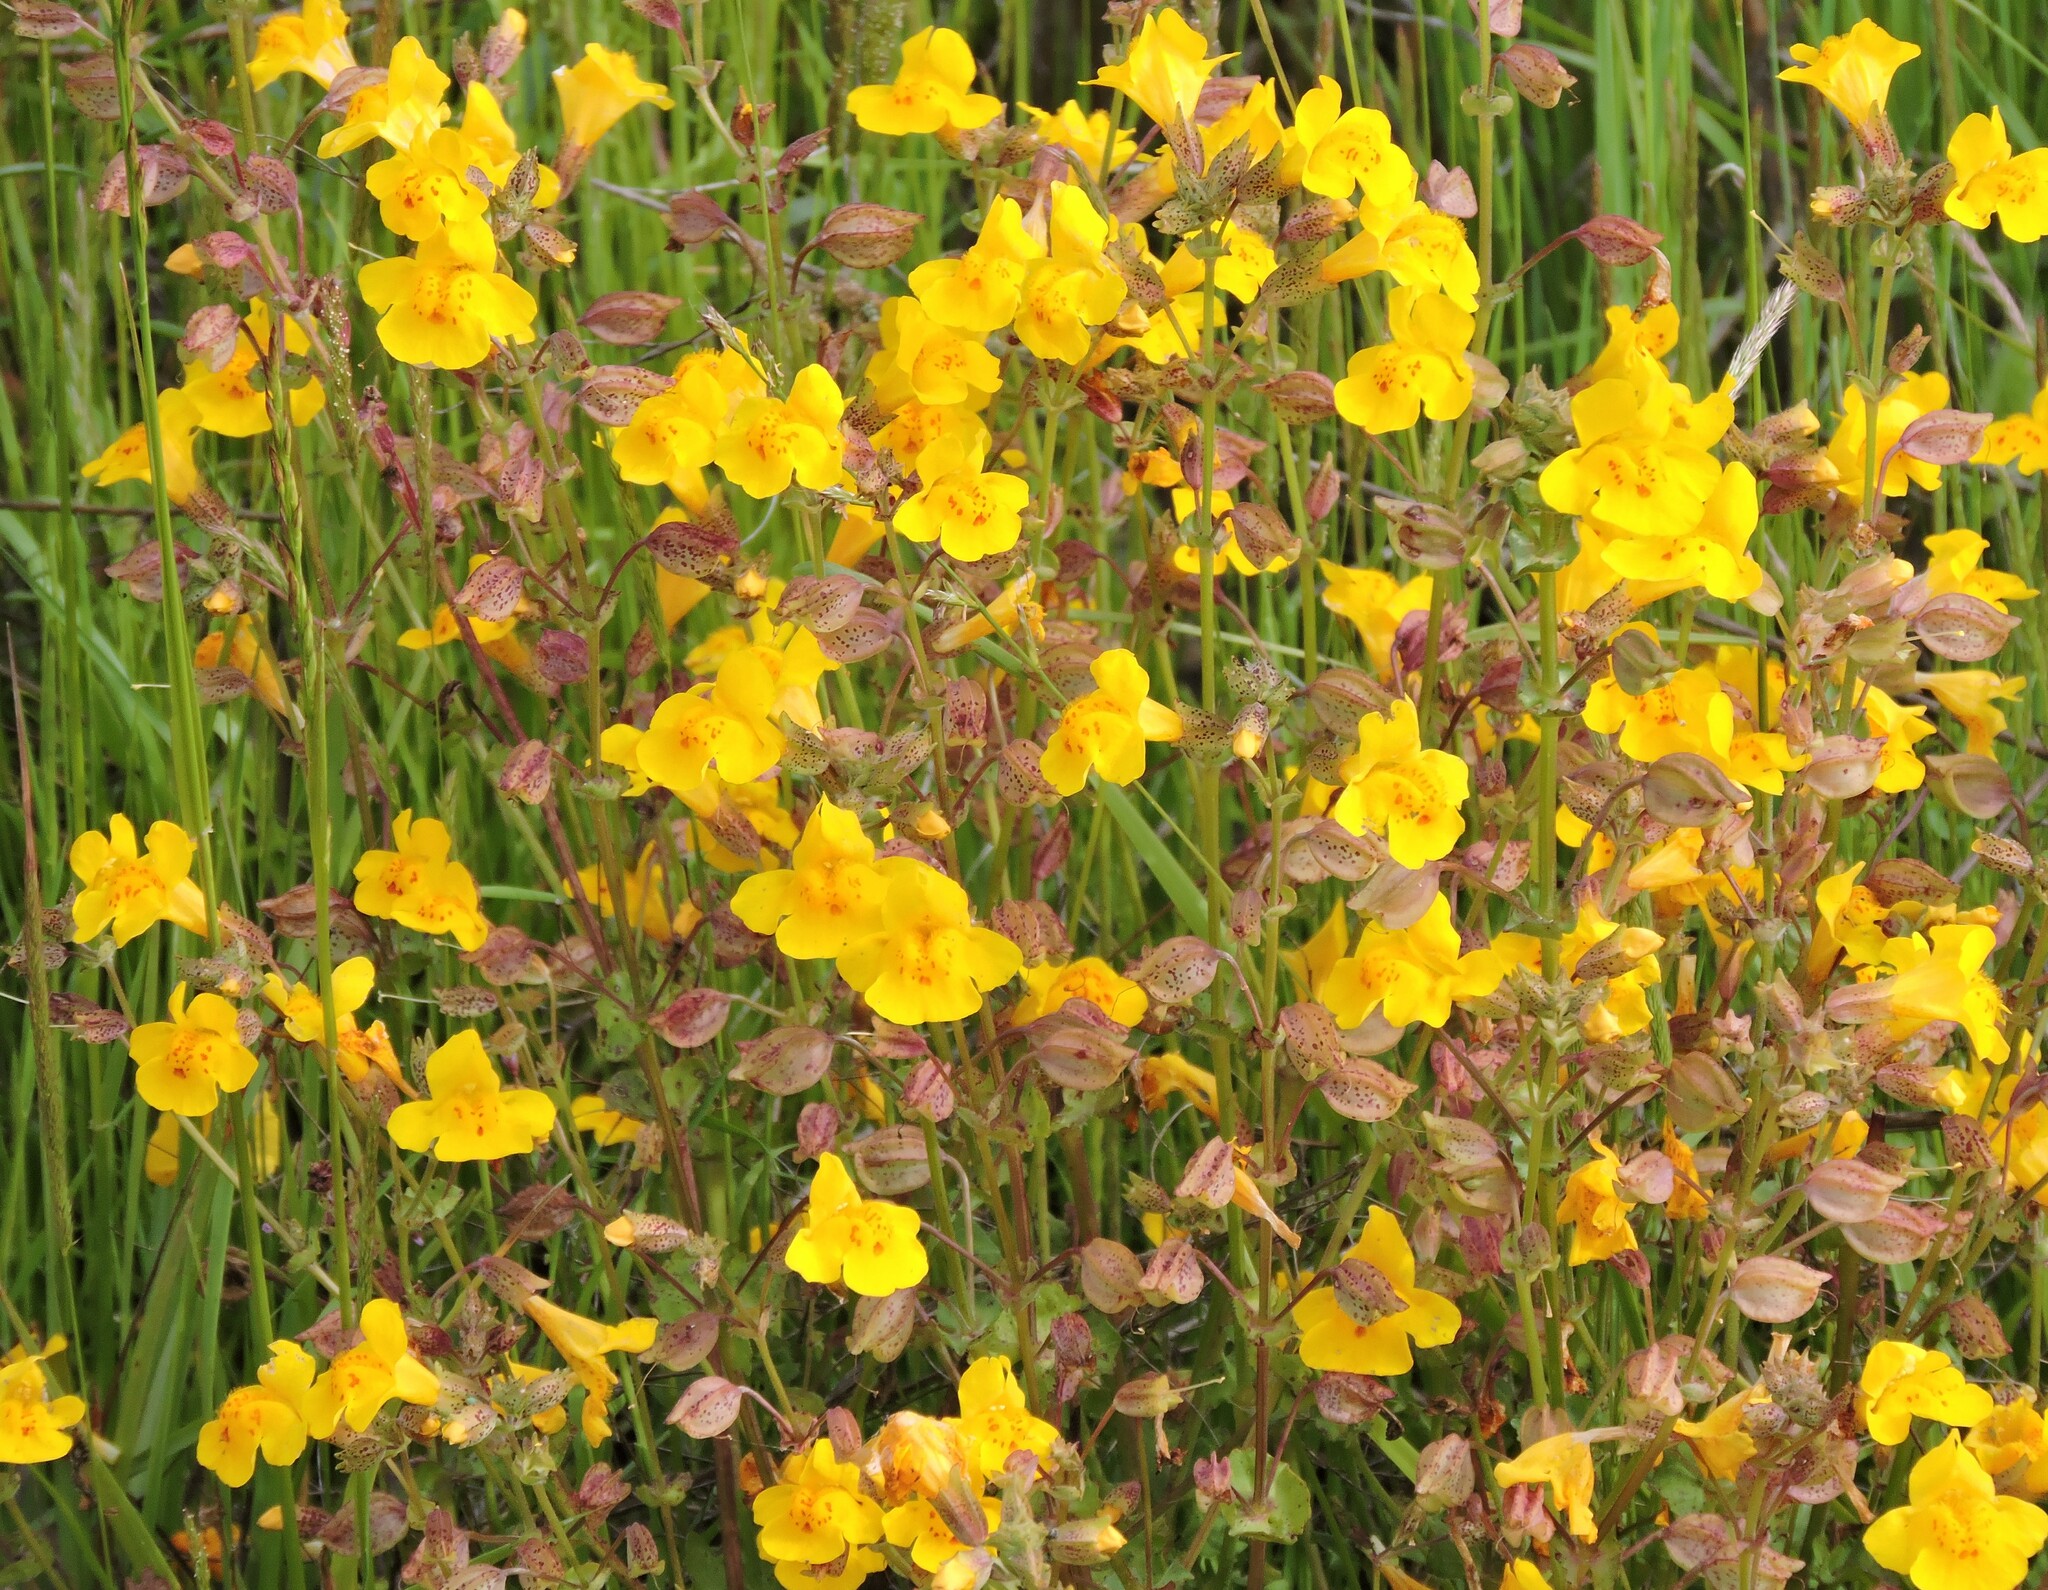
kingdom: Plantae
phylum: Tracheophyta
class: Magnoliopsida
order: Lamiales
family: Phrymaceae
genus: Erythranthe
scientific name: Erythranthe guttata
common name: Monkeyflower
